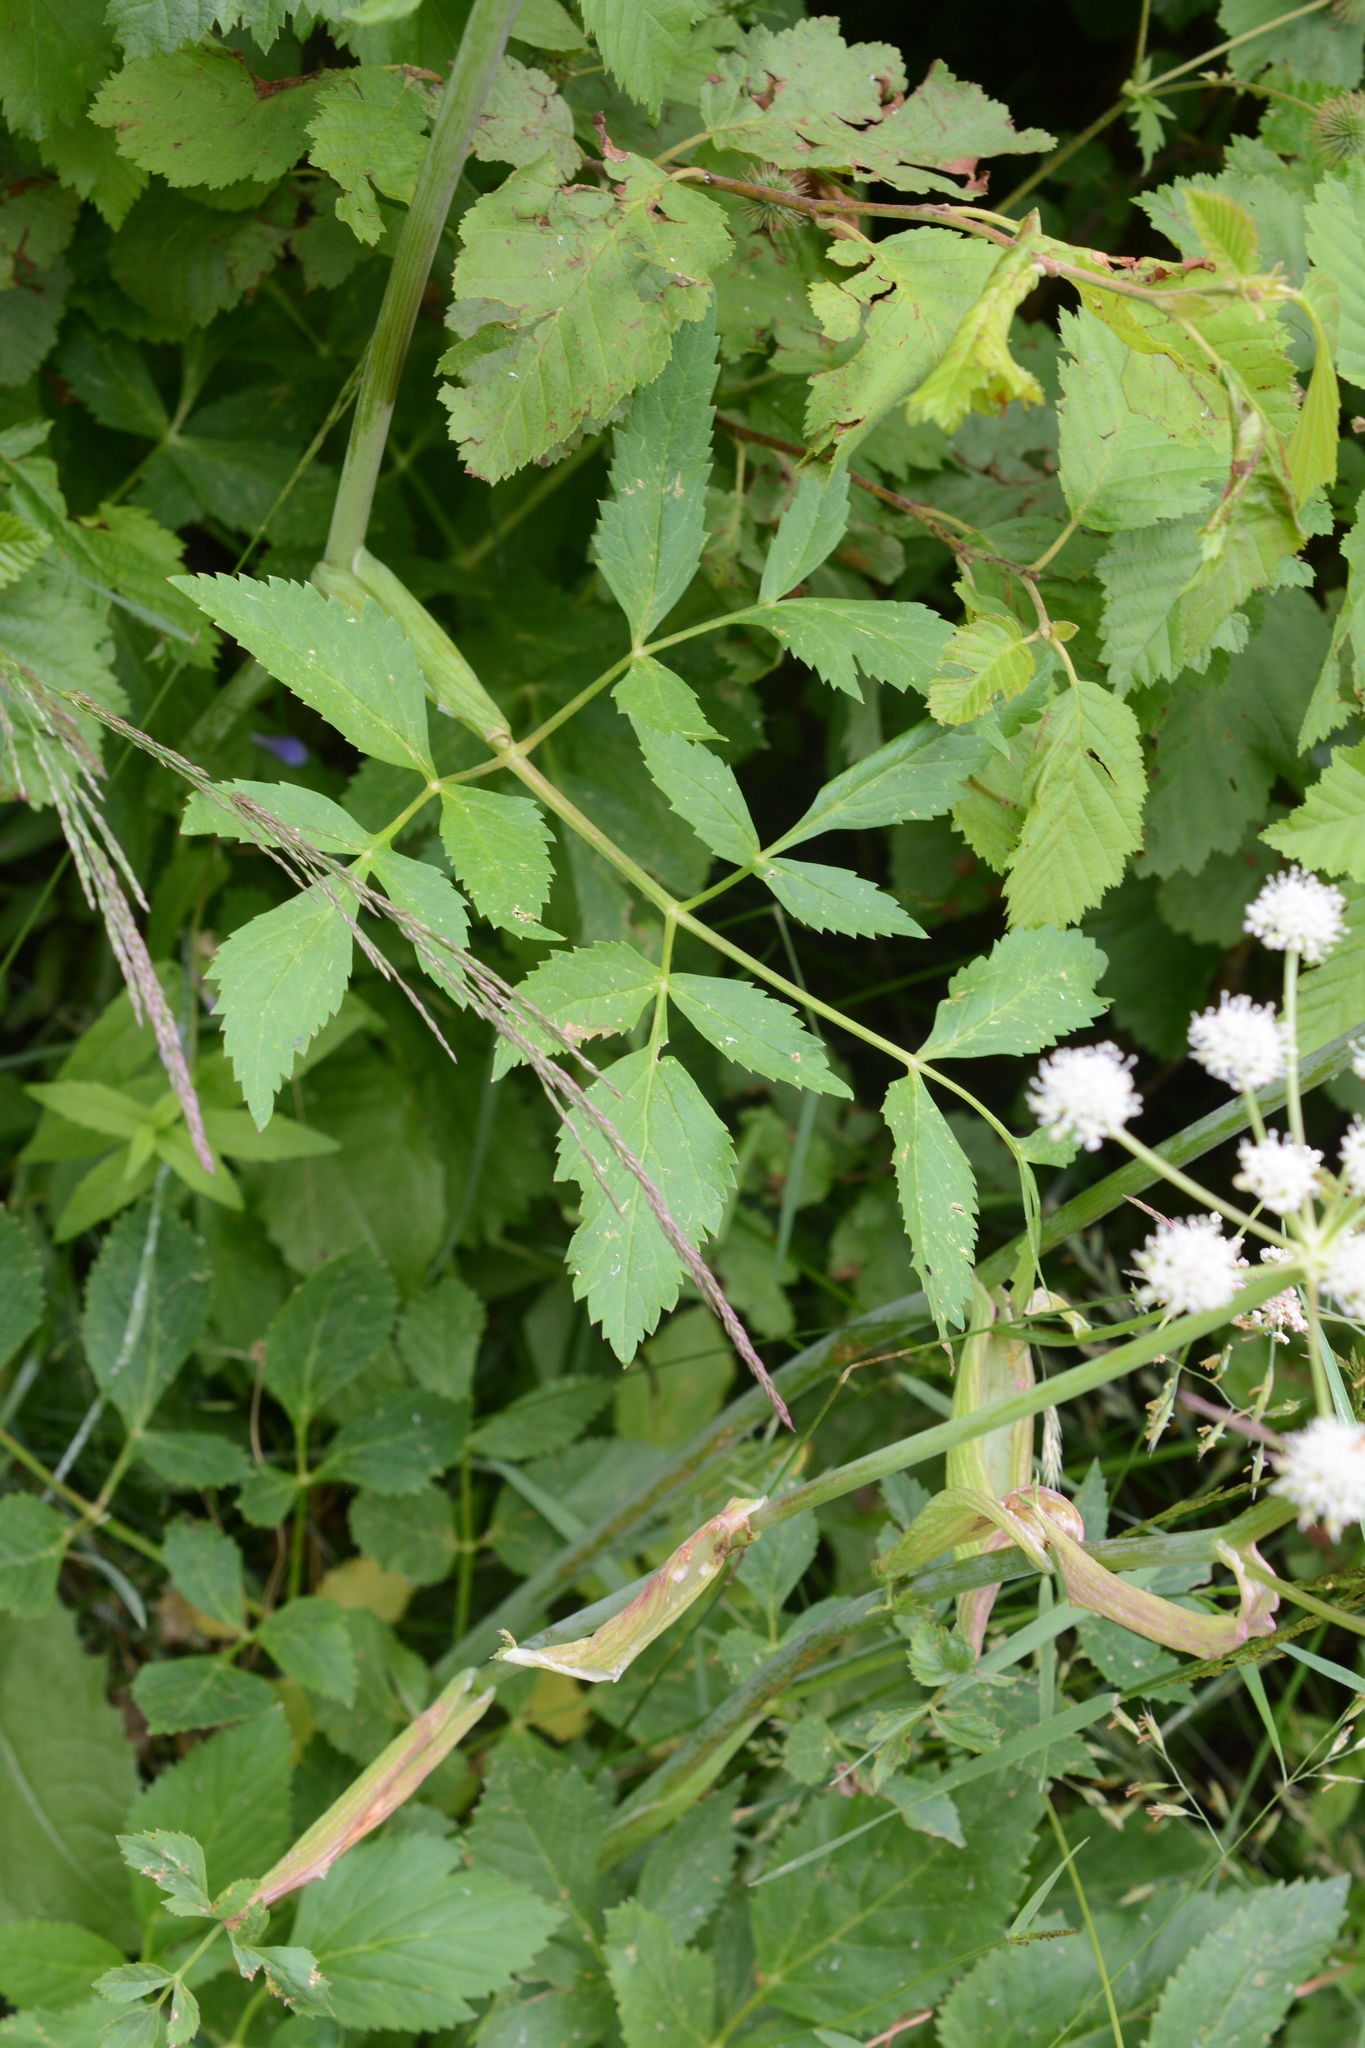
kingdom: Plantae
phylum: Tracheophyta
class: Magnoliopsida
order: Apiales
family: Apiaceae
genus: Angelica
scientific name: Angelica arguta
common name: Lyall's angelica
